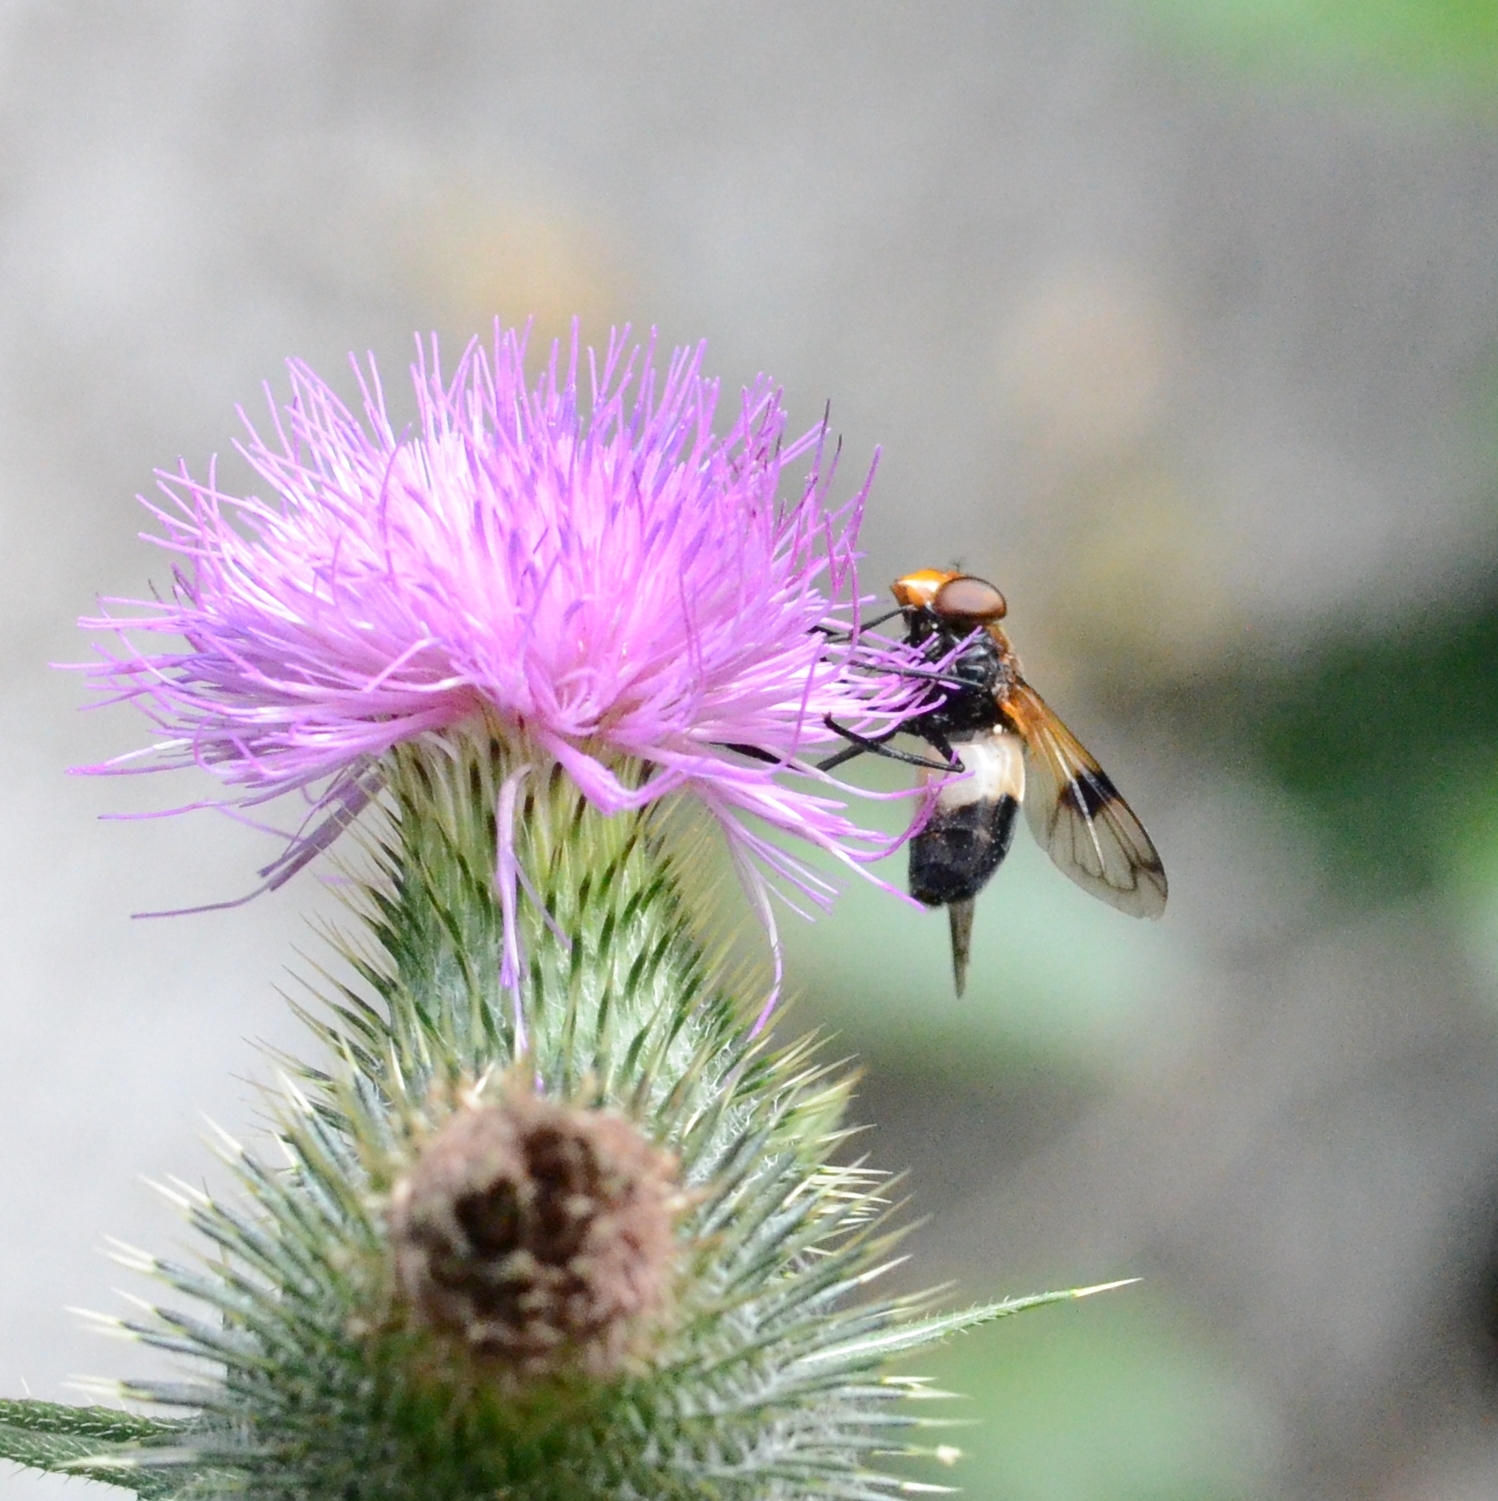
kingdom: Animalia
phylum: Arthropoda
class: Insecta
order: Diptera
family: Syrphidae
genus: Volucella
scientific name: Volucella pellucens
